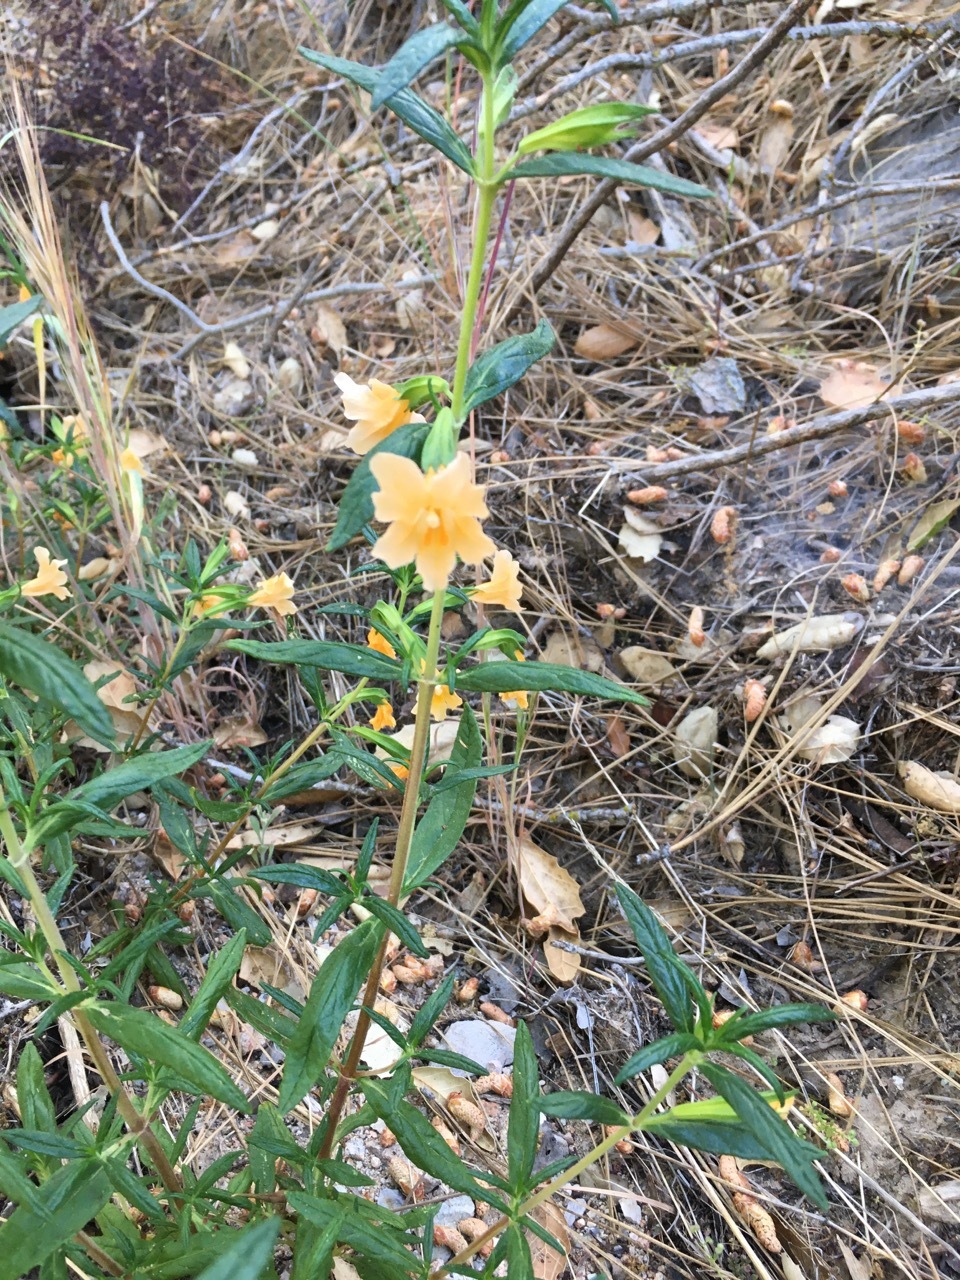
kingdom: Plantae
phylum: Tracheophyta
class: Magnoliopsida
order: Lamiales
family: Phrymaceae
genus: Diplacus
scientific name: Diplacus aurantiacus
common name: Bush monkey-flower
